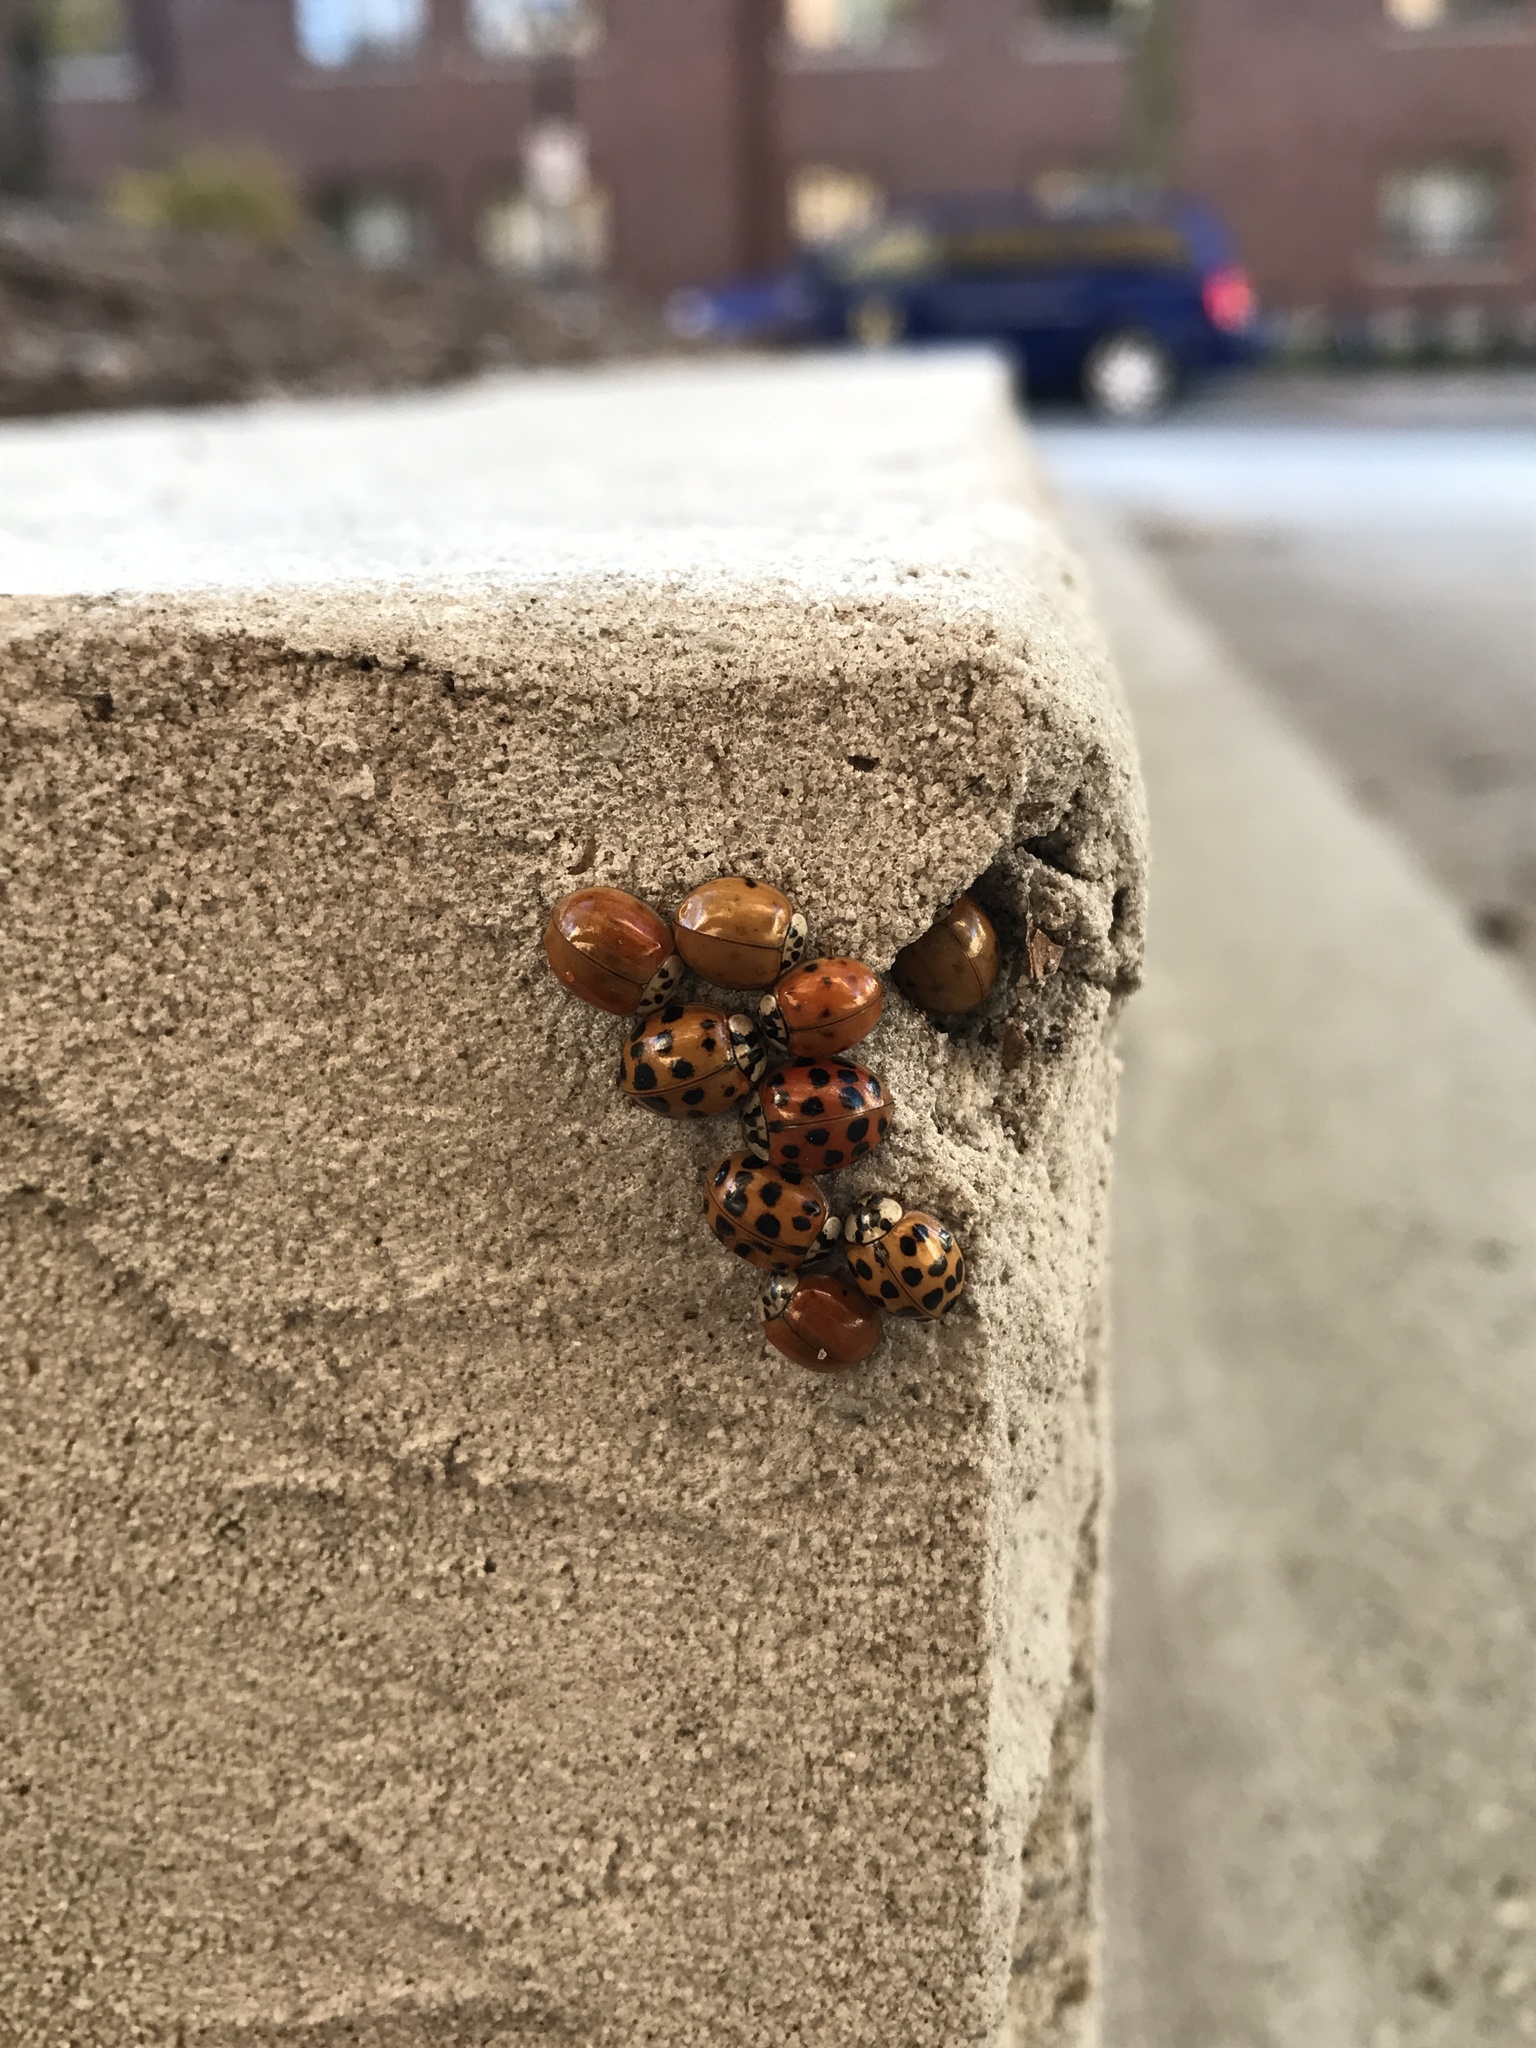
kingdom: Animalia
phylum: Arthropoda
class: Insecta
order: Coleoptera
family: Coccinellidae
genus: Harmonia
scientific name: Harmonia axyridis
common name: Harlequin ladybird
